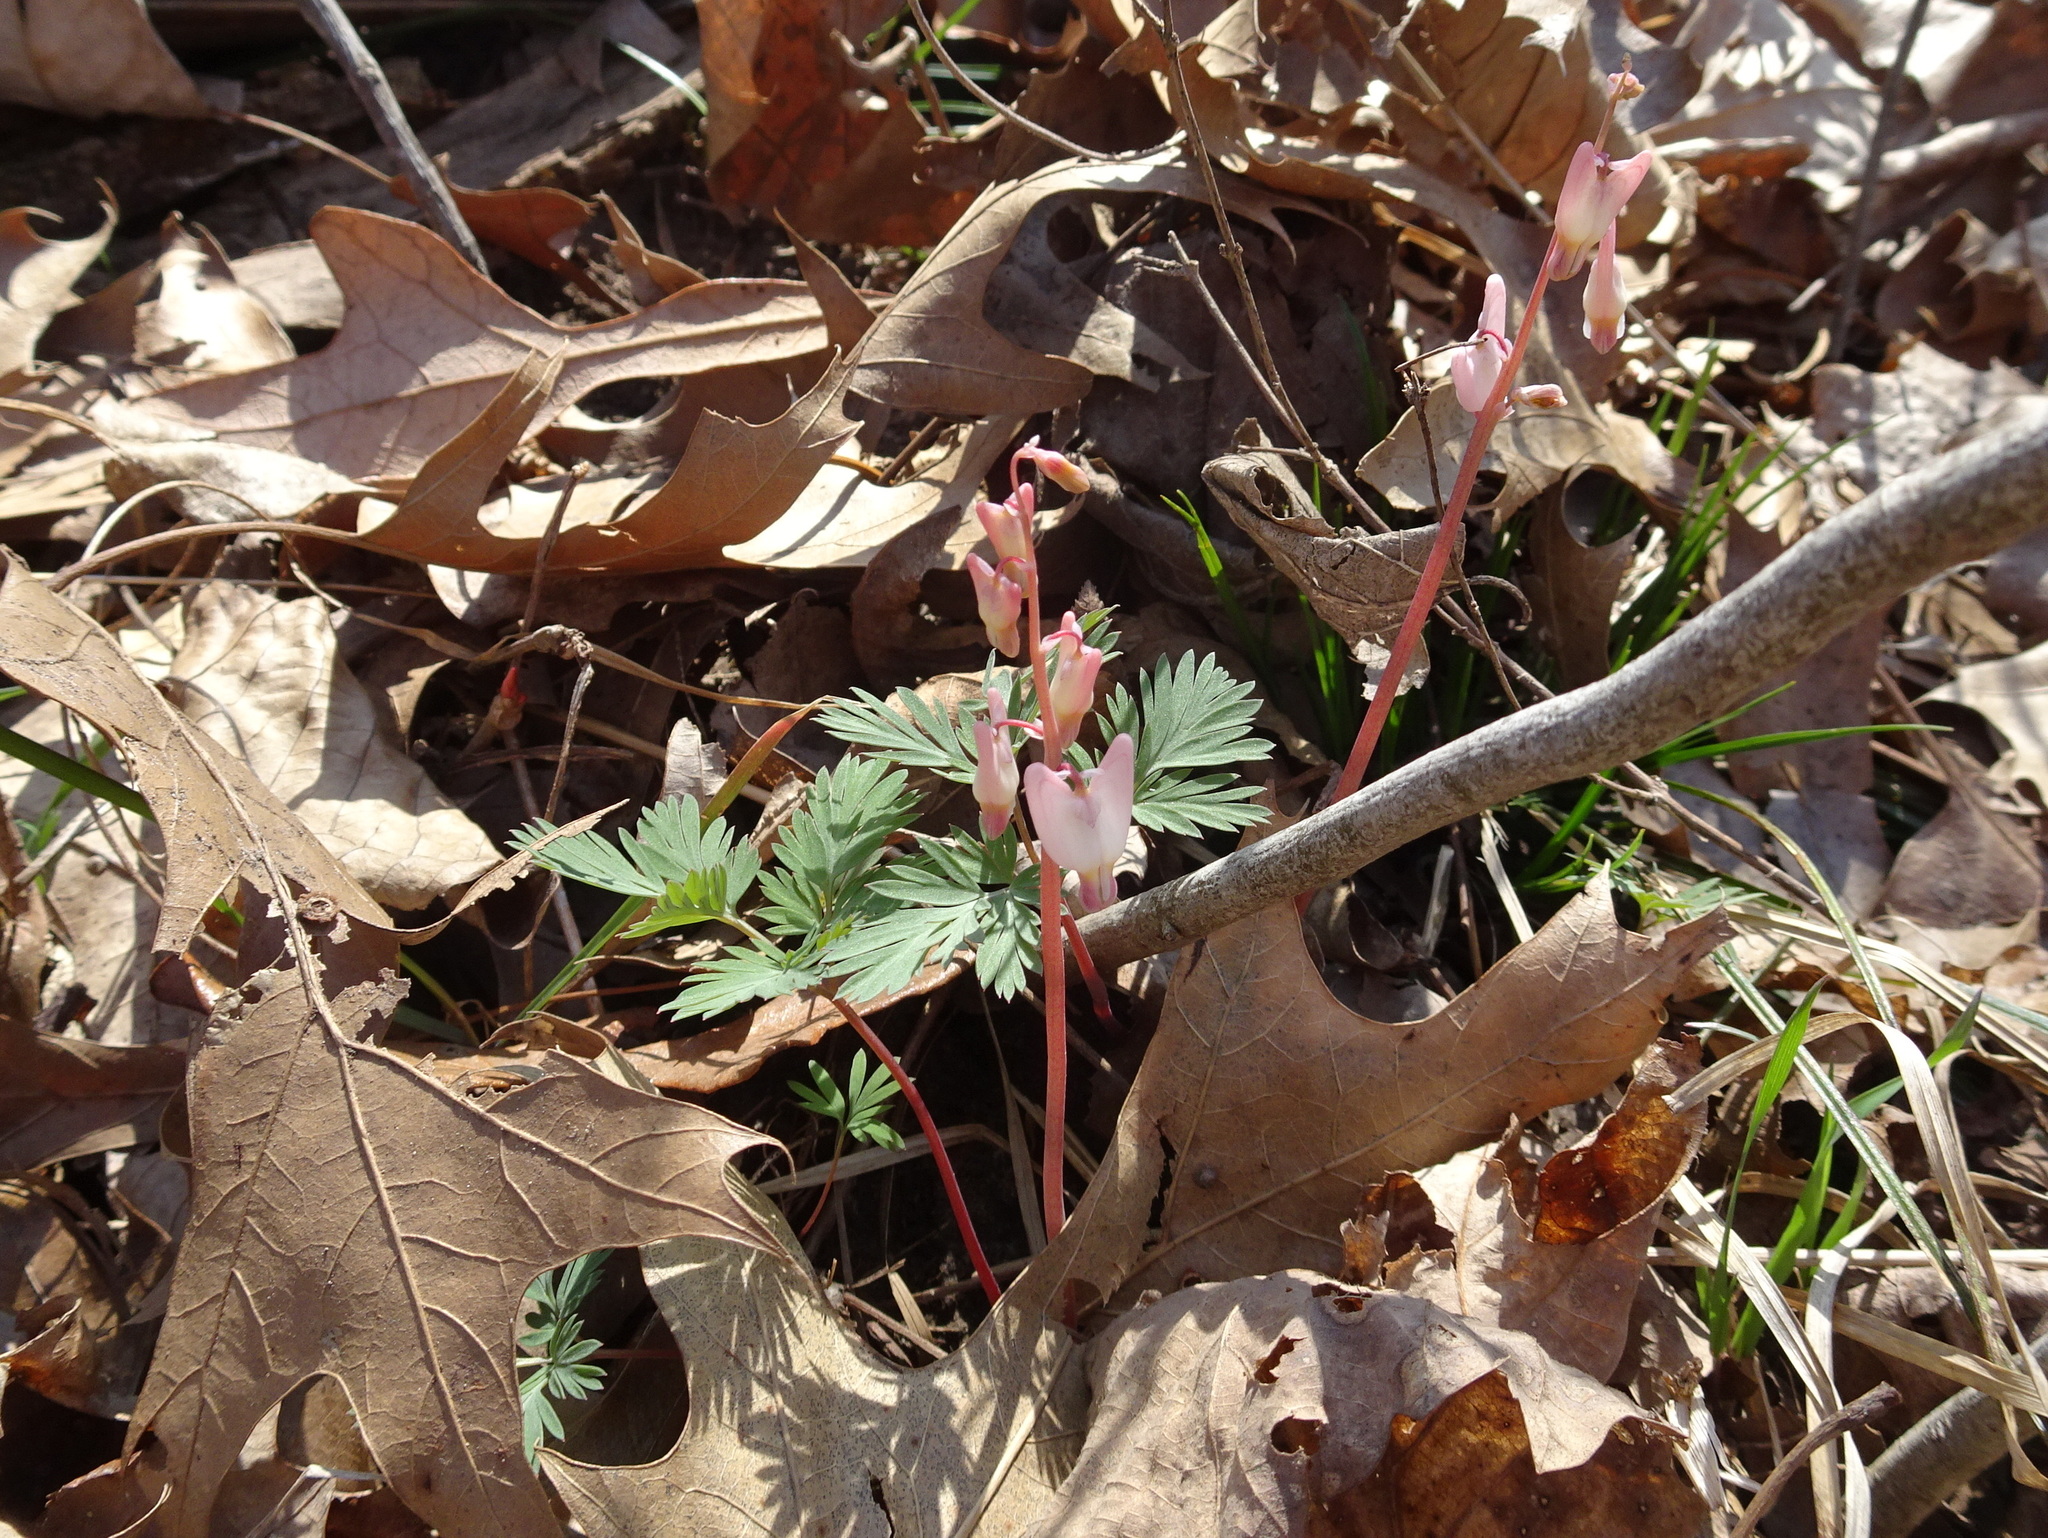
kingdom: Plantae
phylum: Tracheophyta
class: Magnoliopsida
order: Ranunculales
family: Papaveraceae
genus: Dicentra
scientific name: Dicentra cucullaria
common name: Dutchman's breeches
